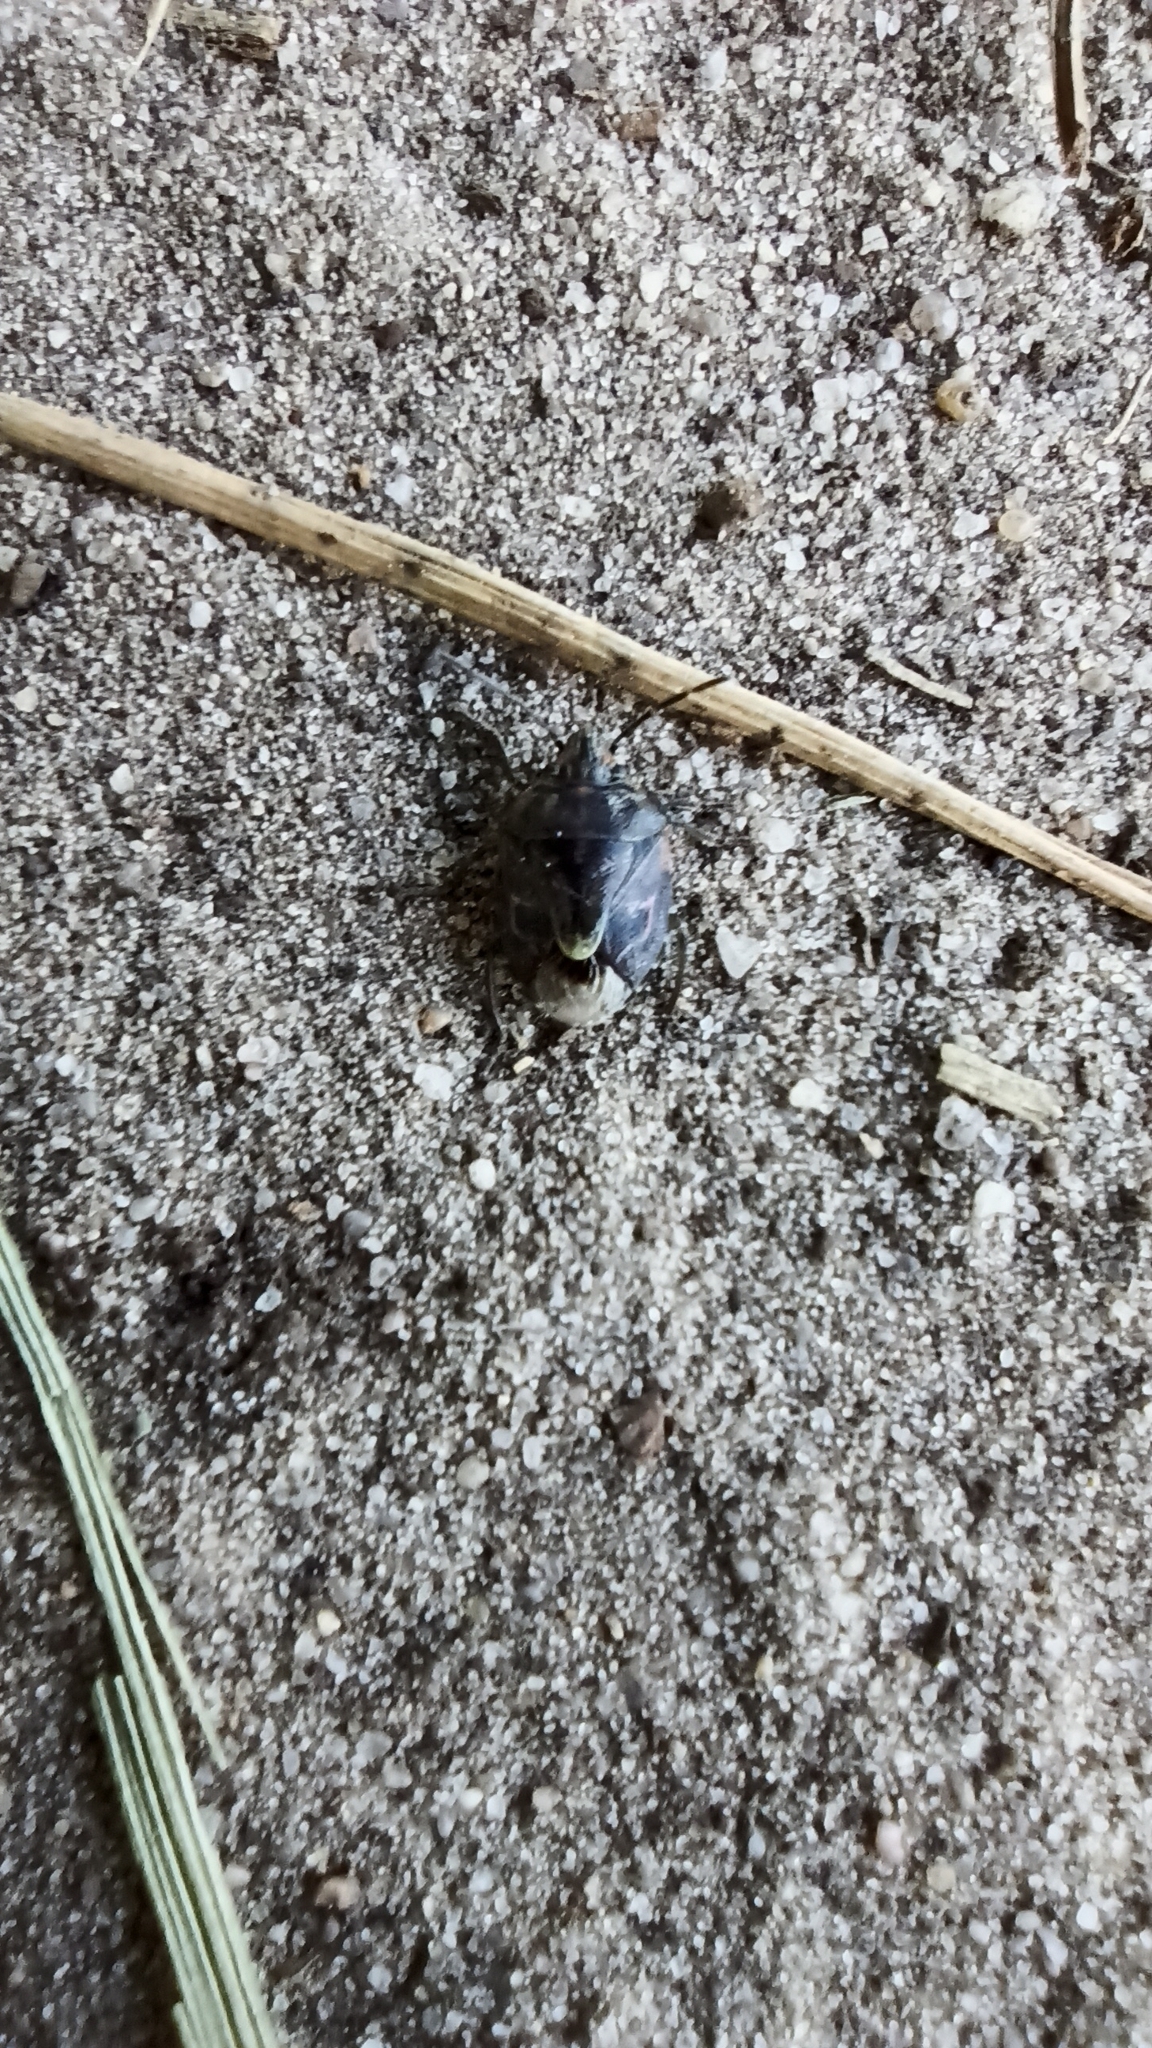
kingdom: Animalia
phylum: Arthropoda
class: Insecta
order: Hemiptera
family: Pentatomidae
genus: Holcogaster
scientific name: Holcogaster fibulata
